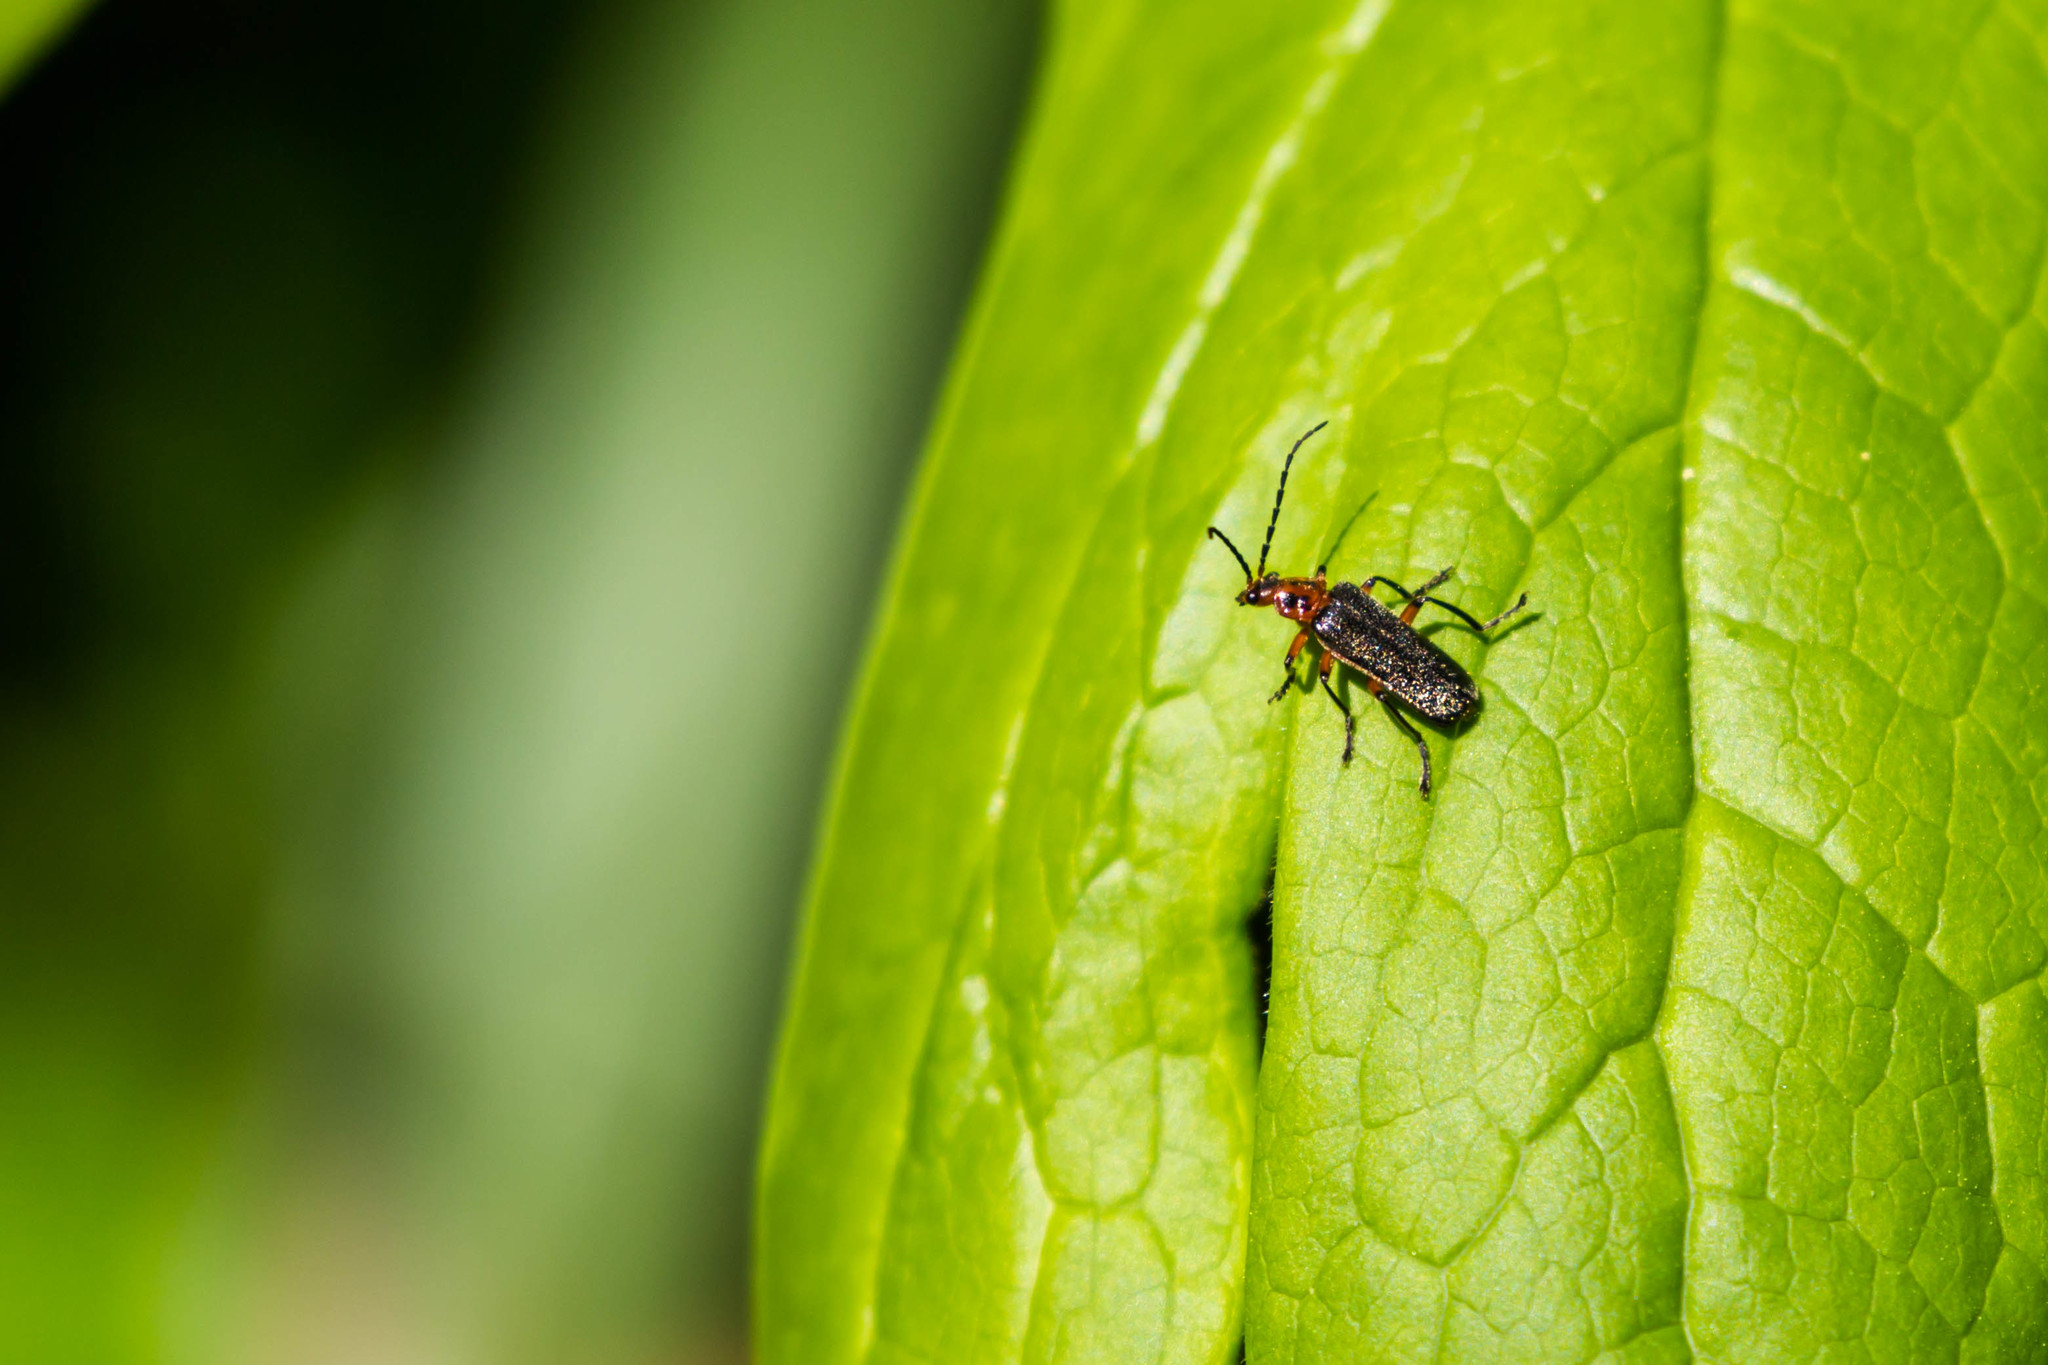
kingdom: Animalia
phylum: Arthropoda
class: Insecta
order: Coleoptera
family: Cantharidae
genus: Atalantycha
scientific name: Atalantycha bilineata
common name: Two-lined leatherwing
